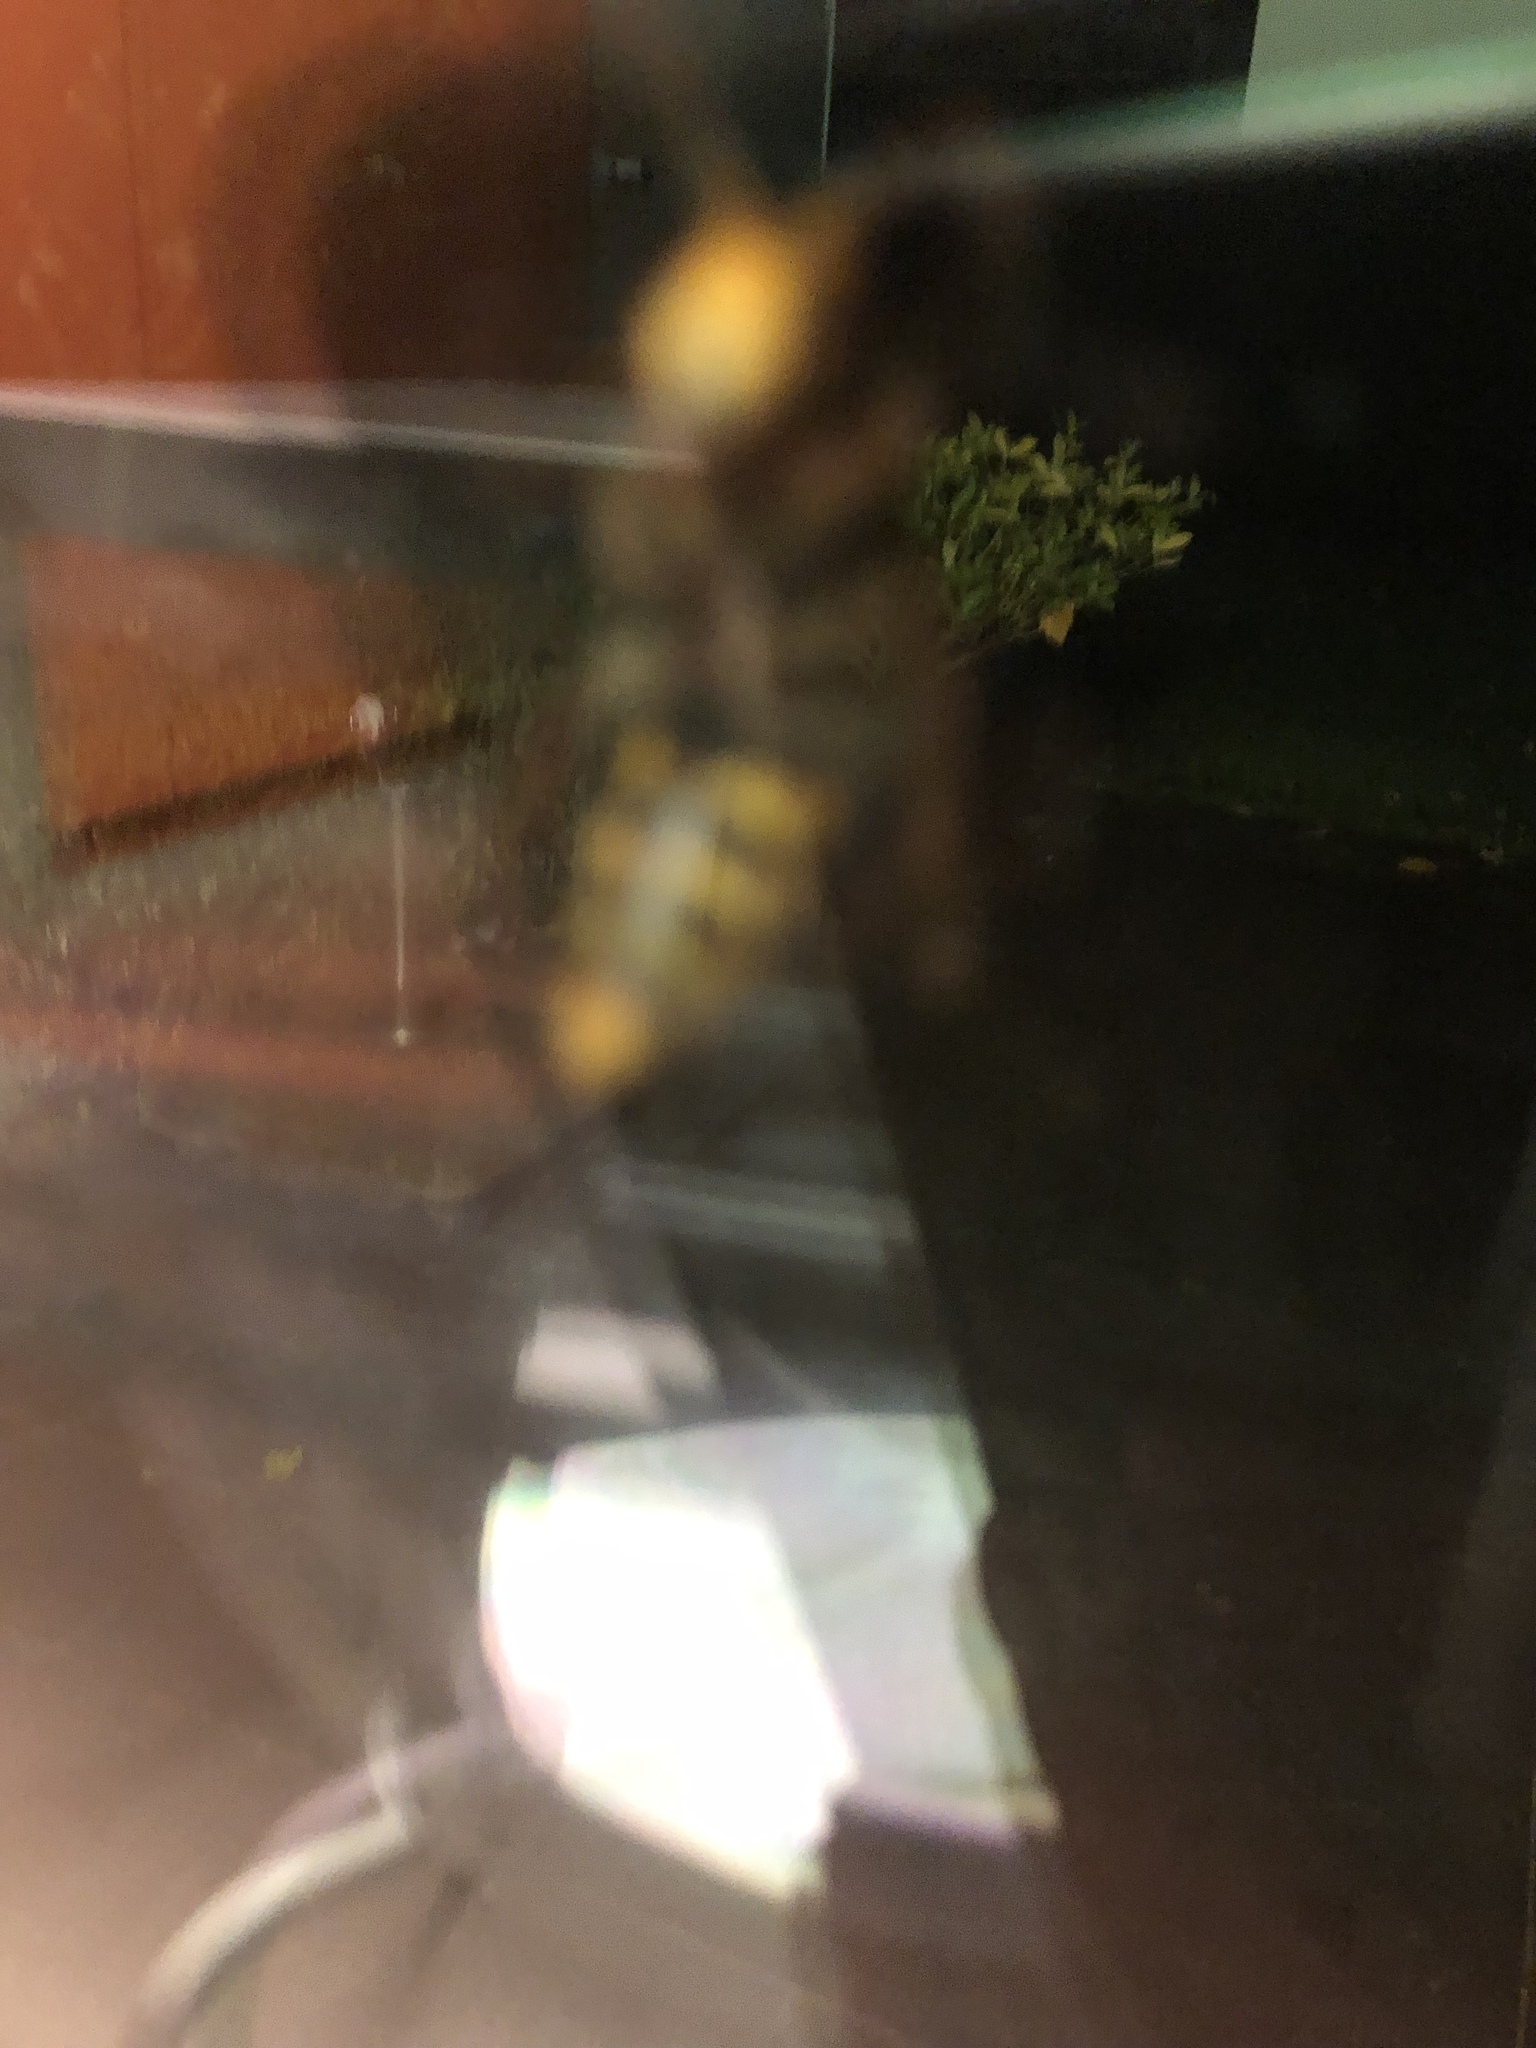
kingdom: Animalia
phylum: Arthropoda
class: Insecta
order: Hymenoptera
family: Vespidae
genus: Vespa
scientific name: Vespa crabro
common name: Hornet
